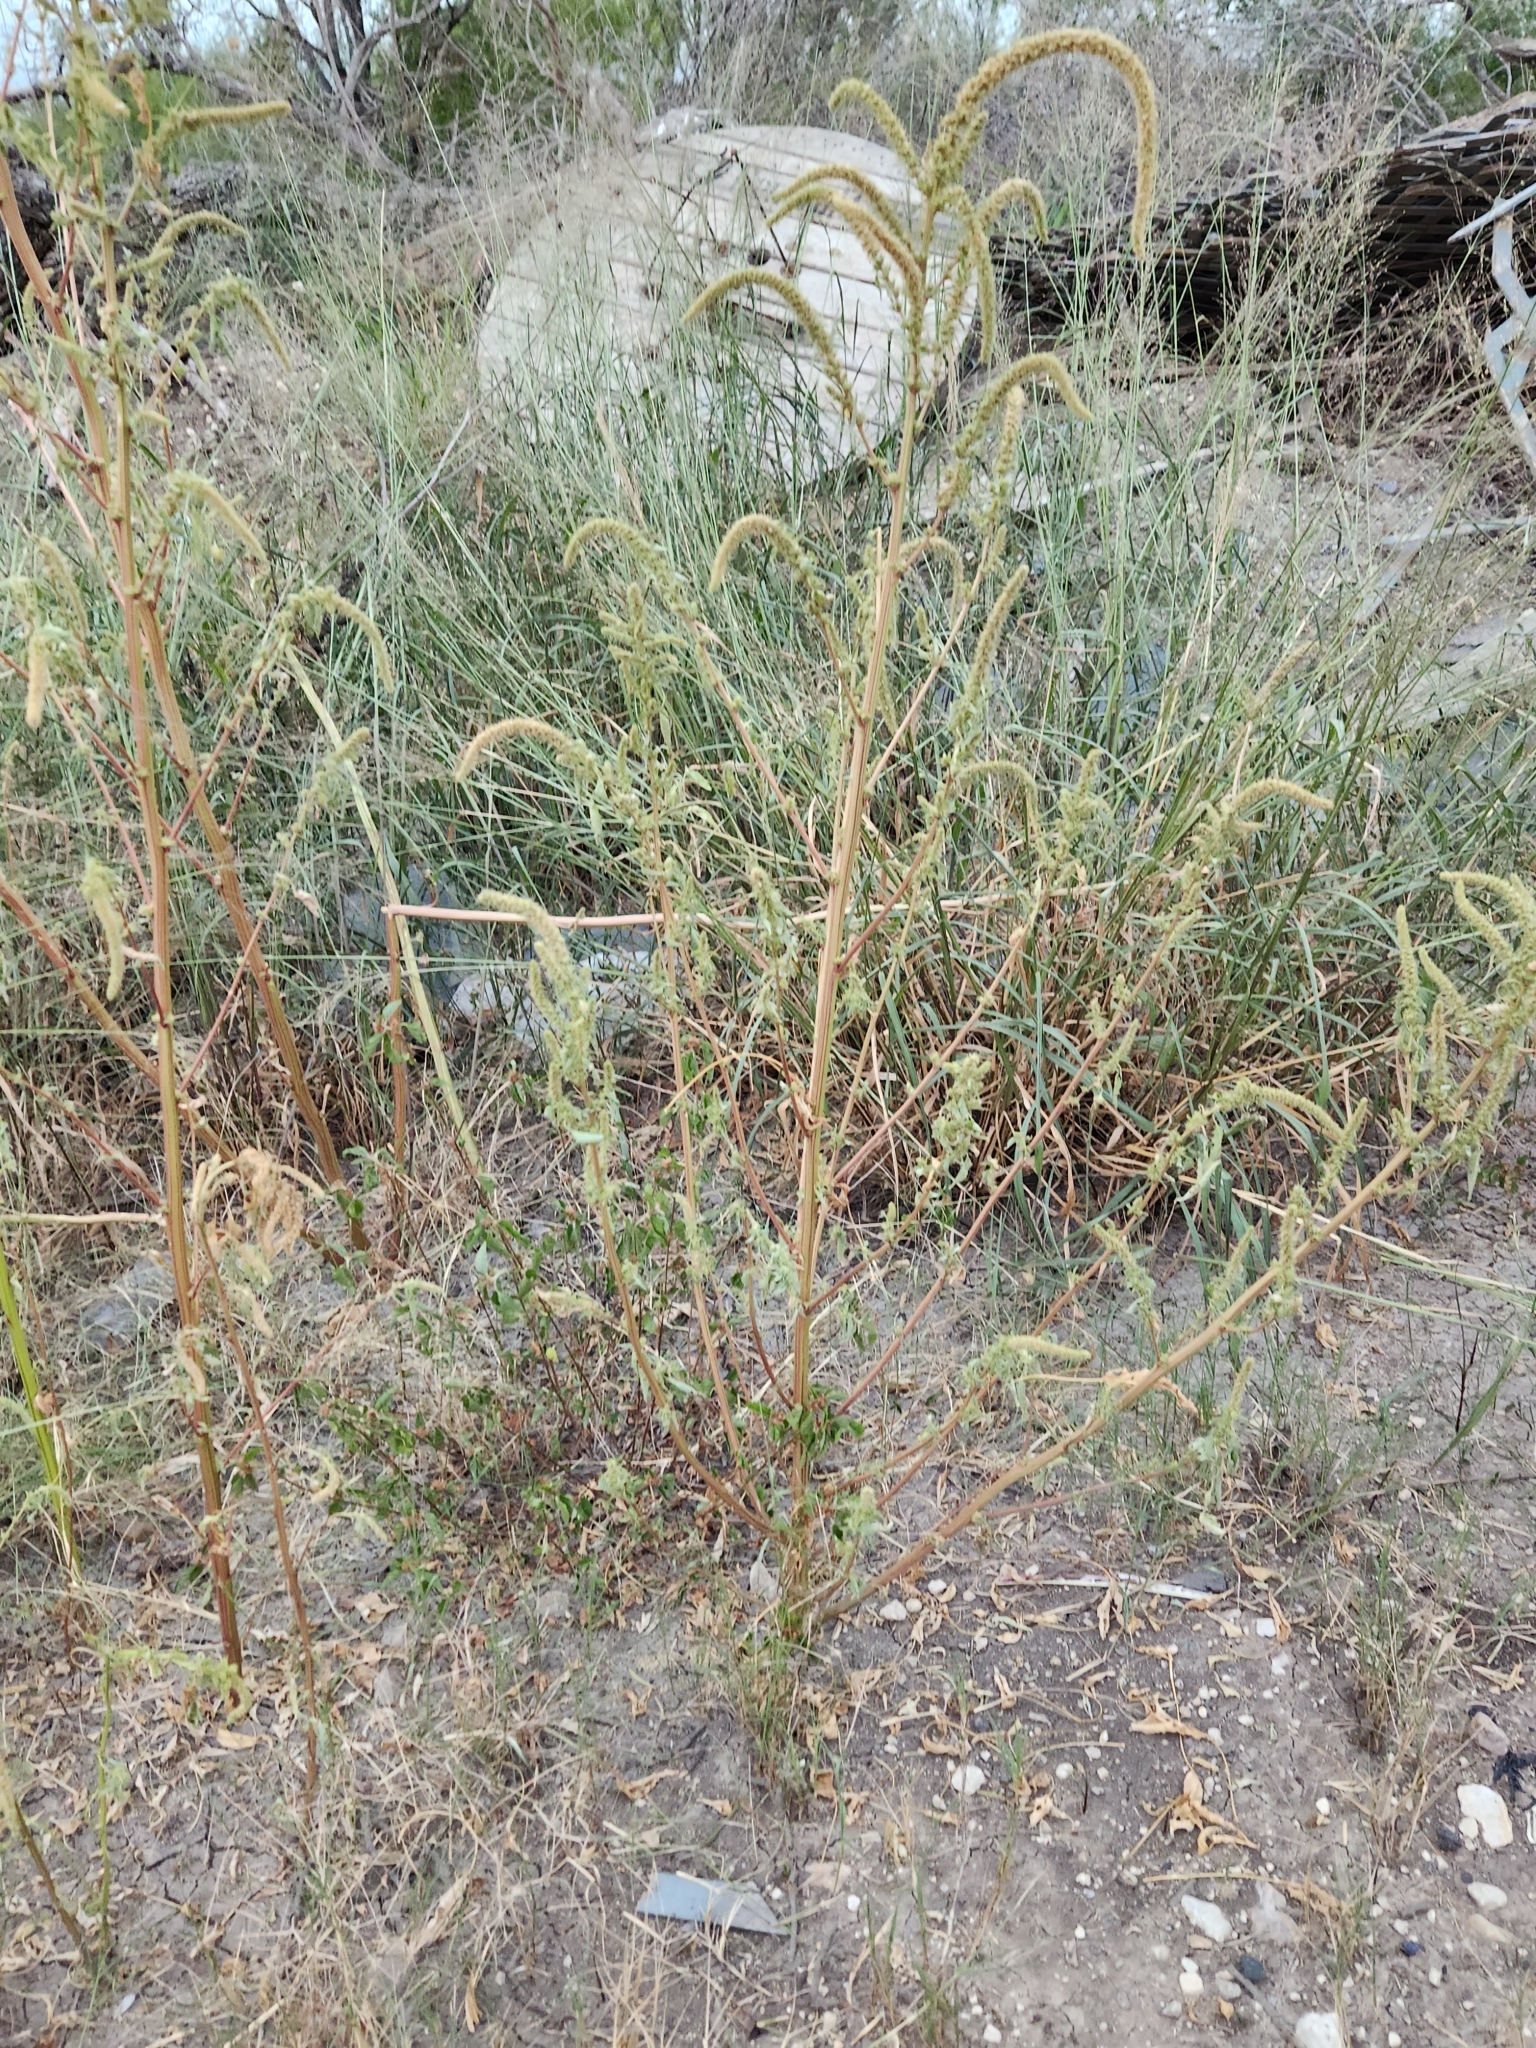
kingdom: Plantae
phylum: Tracheophyta
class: Magnoliopsida
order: Caryophyllales
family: Amaranthaceae
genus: Amaranthus
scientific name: Amaranthus palmeri
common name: Dioecious amaranth
